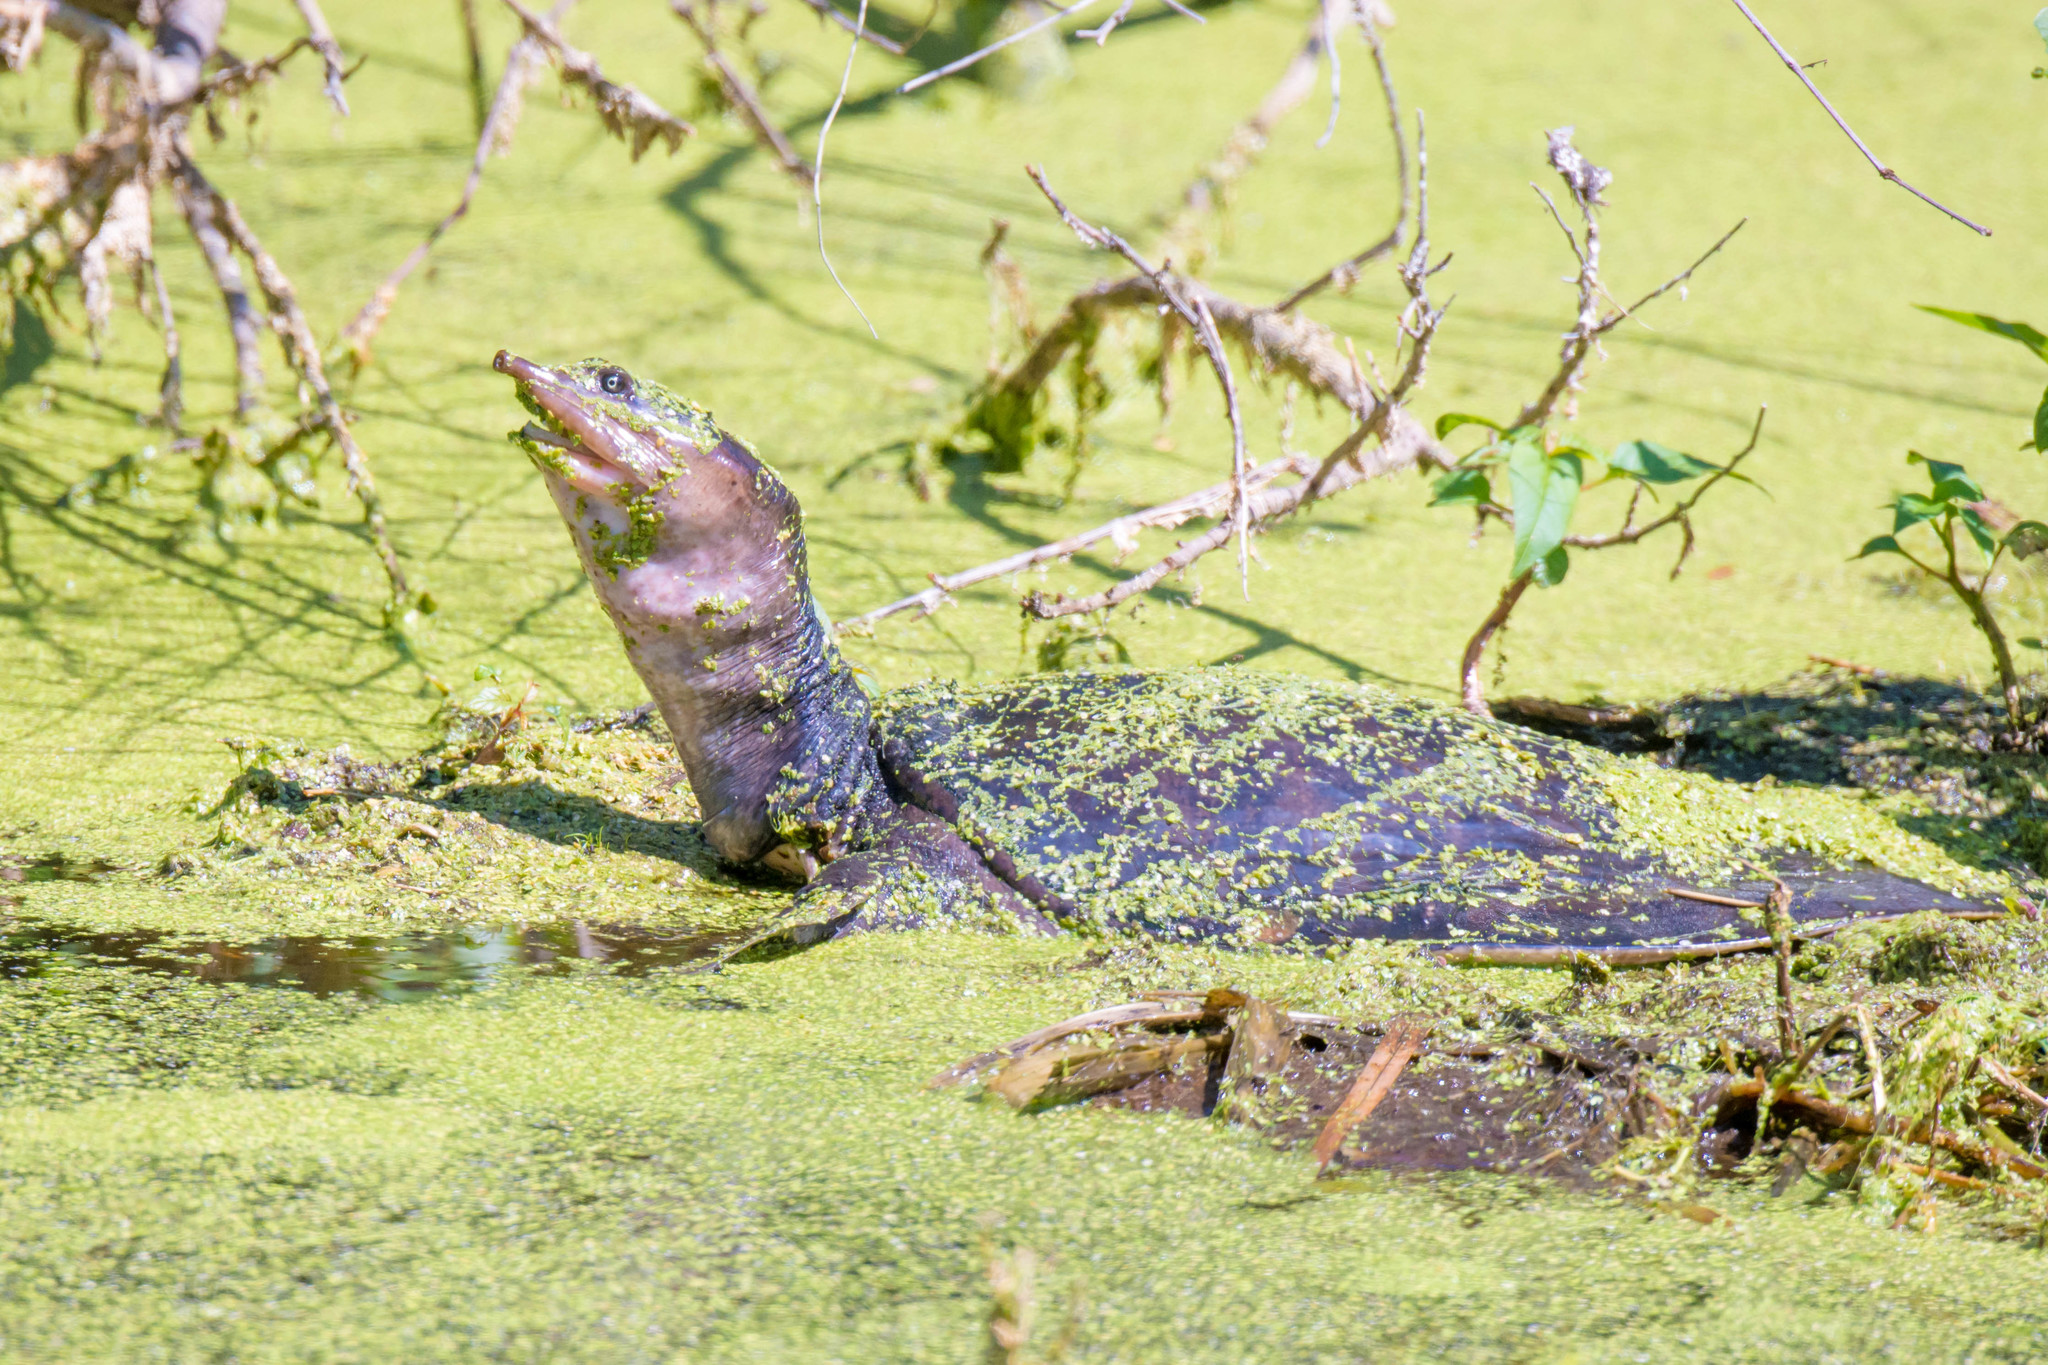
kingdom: Animalia
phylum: Chordata
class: Testudines
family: Trionychidae
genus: Apalone
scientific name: Apalone ferox
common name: Florida softshell turtle
